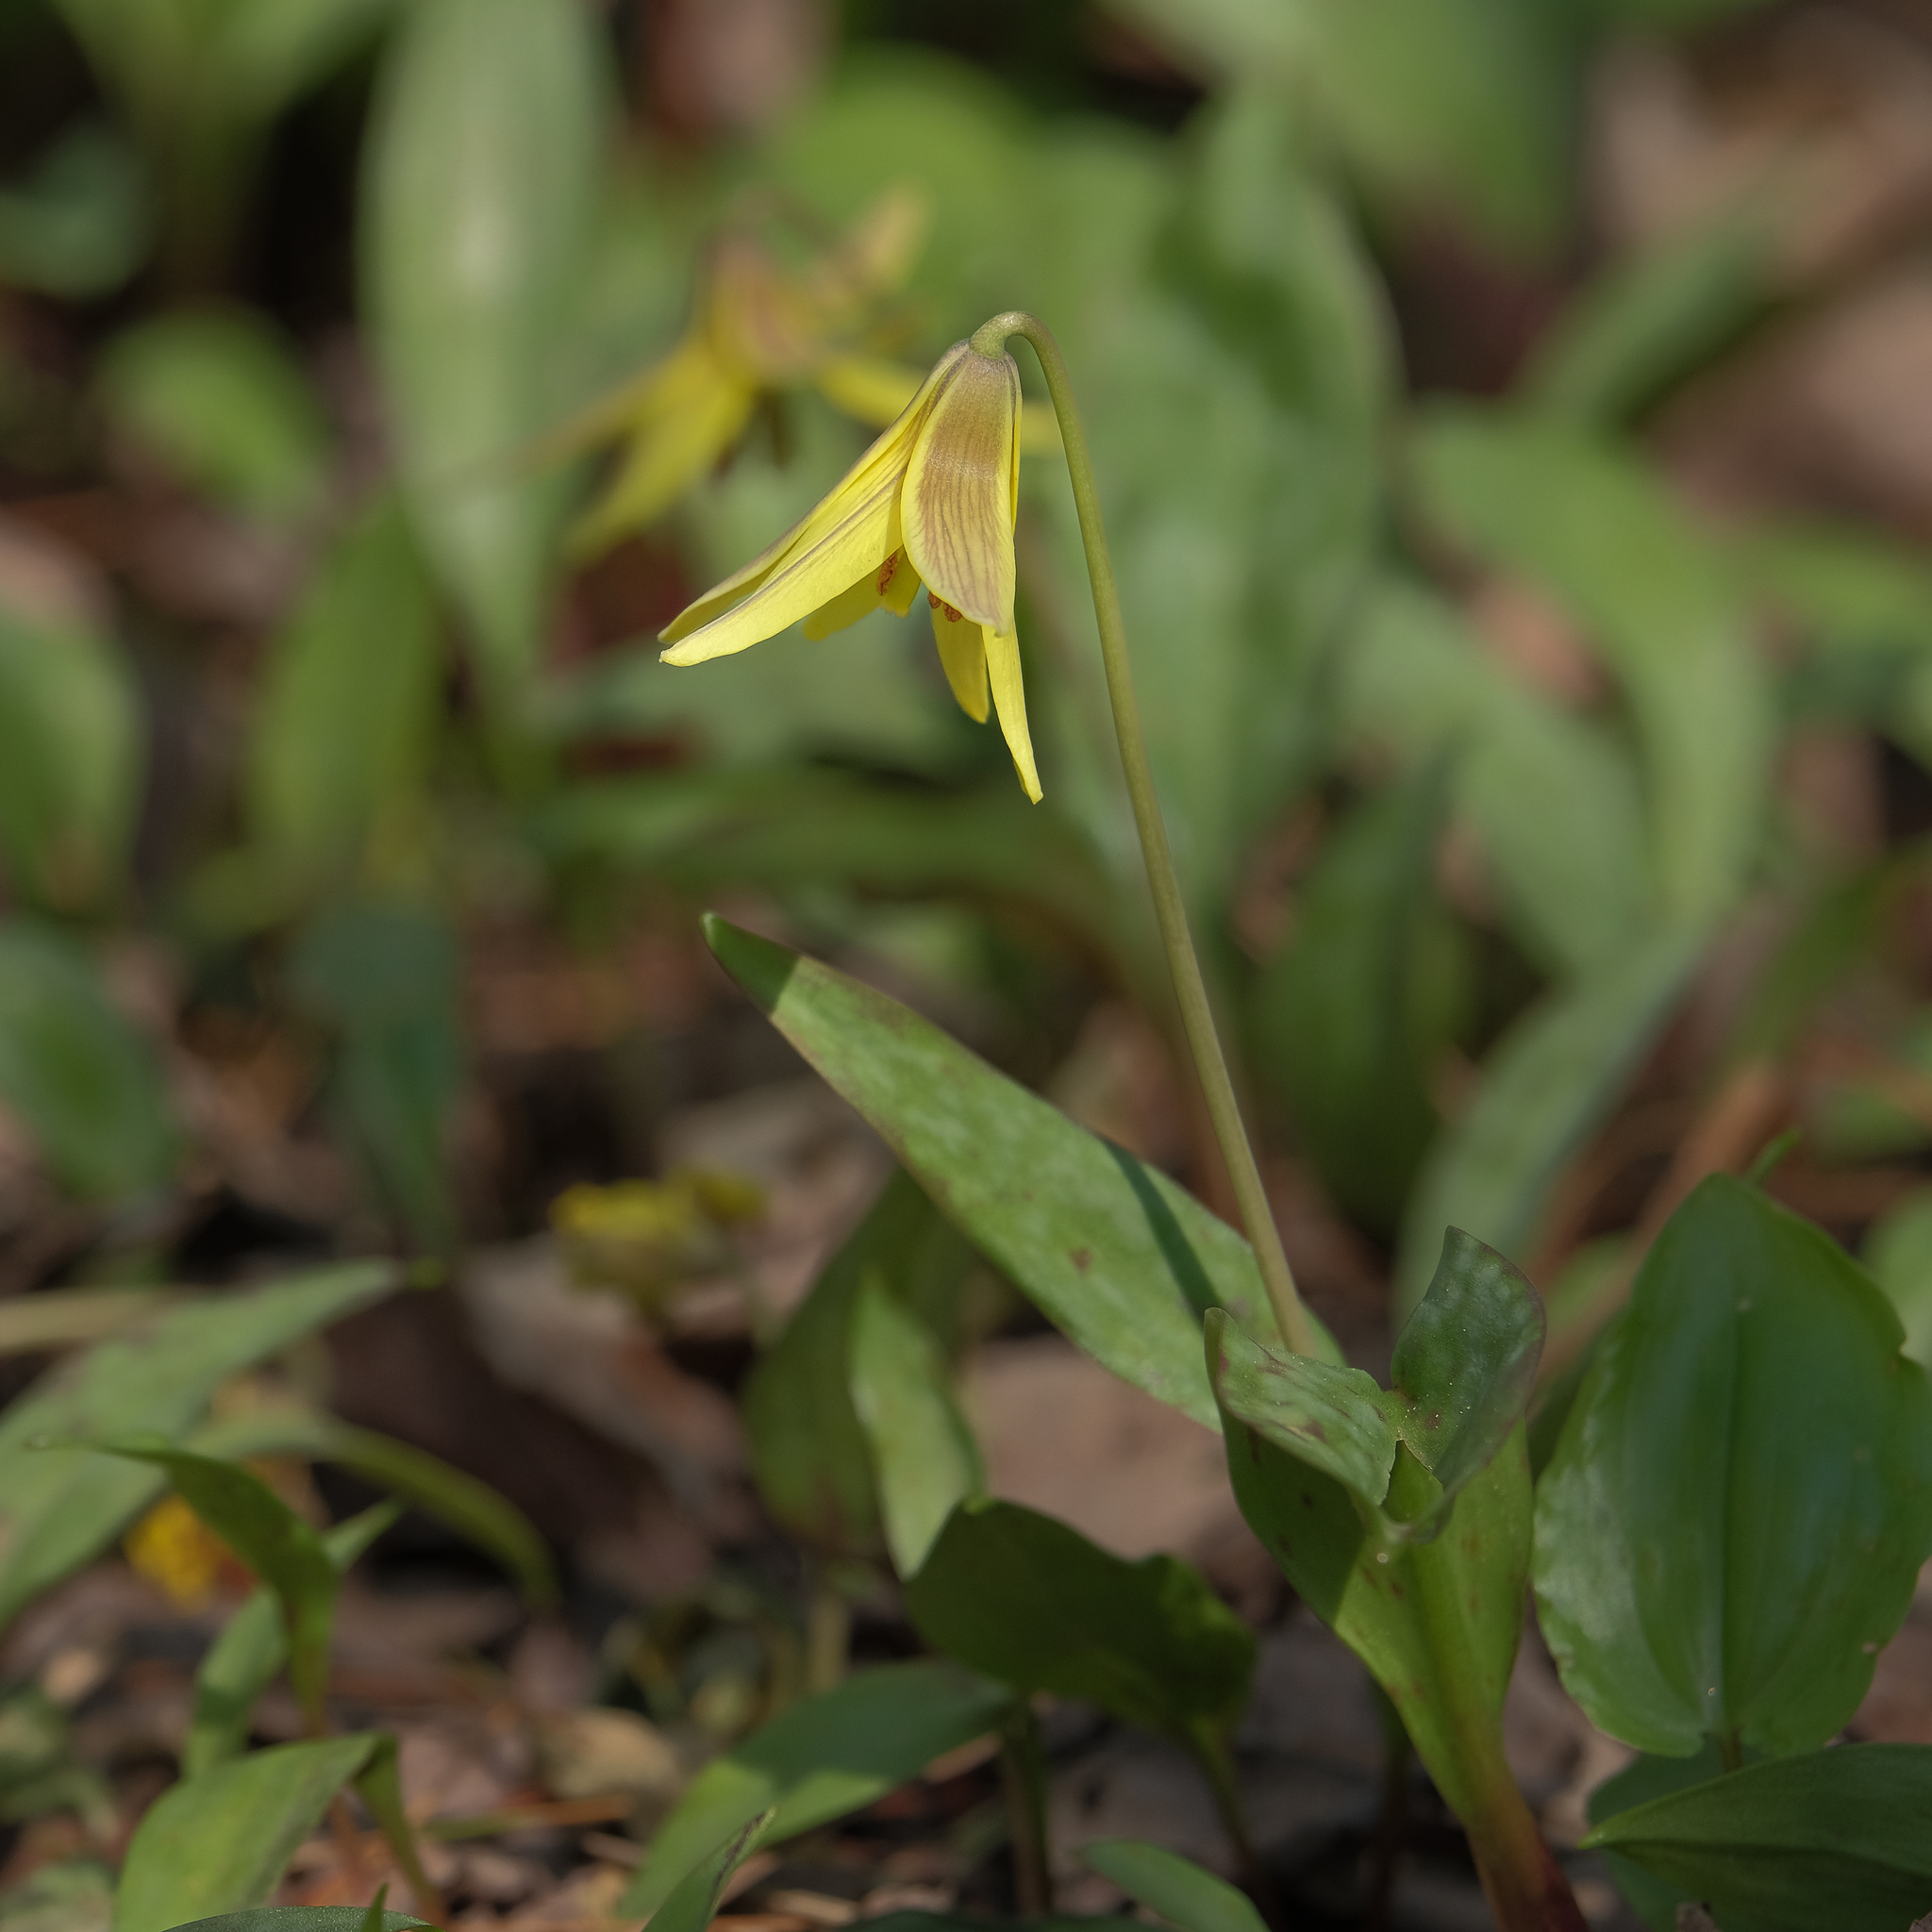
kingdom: Plantae
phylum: Tracheophyta
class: Liliopsida
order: Liliales
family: Liliaceae
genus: Erythronium
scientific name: Erythronium americanum
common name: Yellow adder's-tongue
